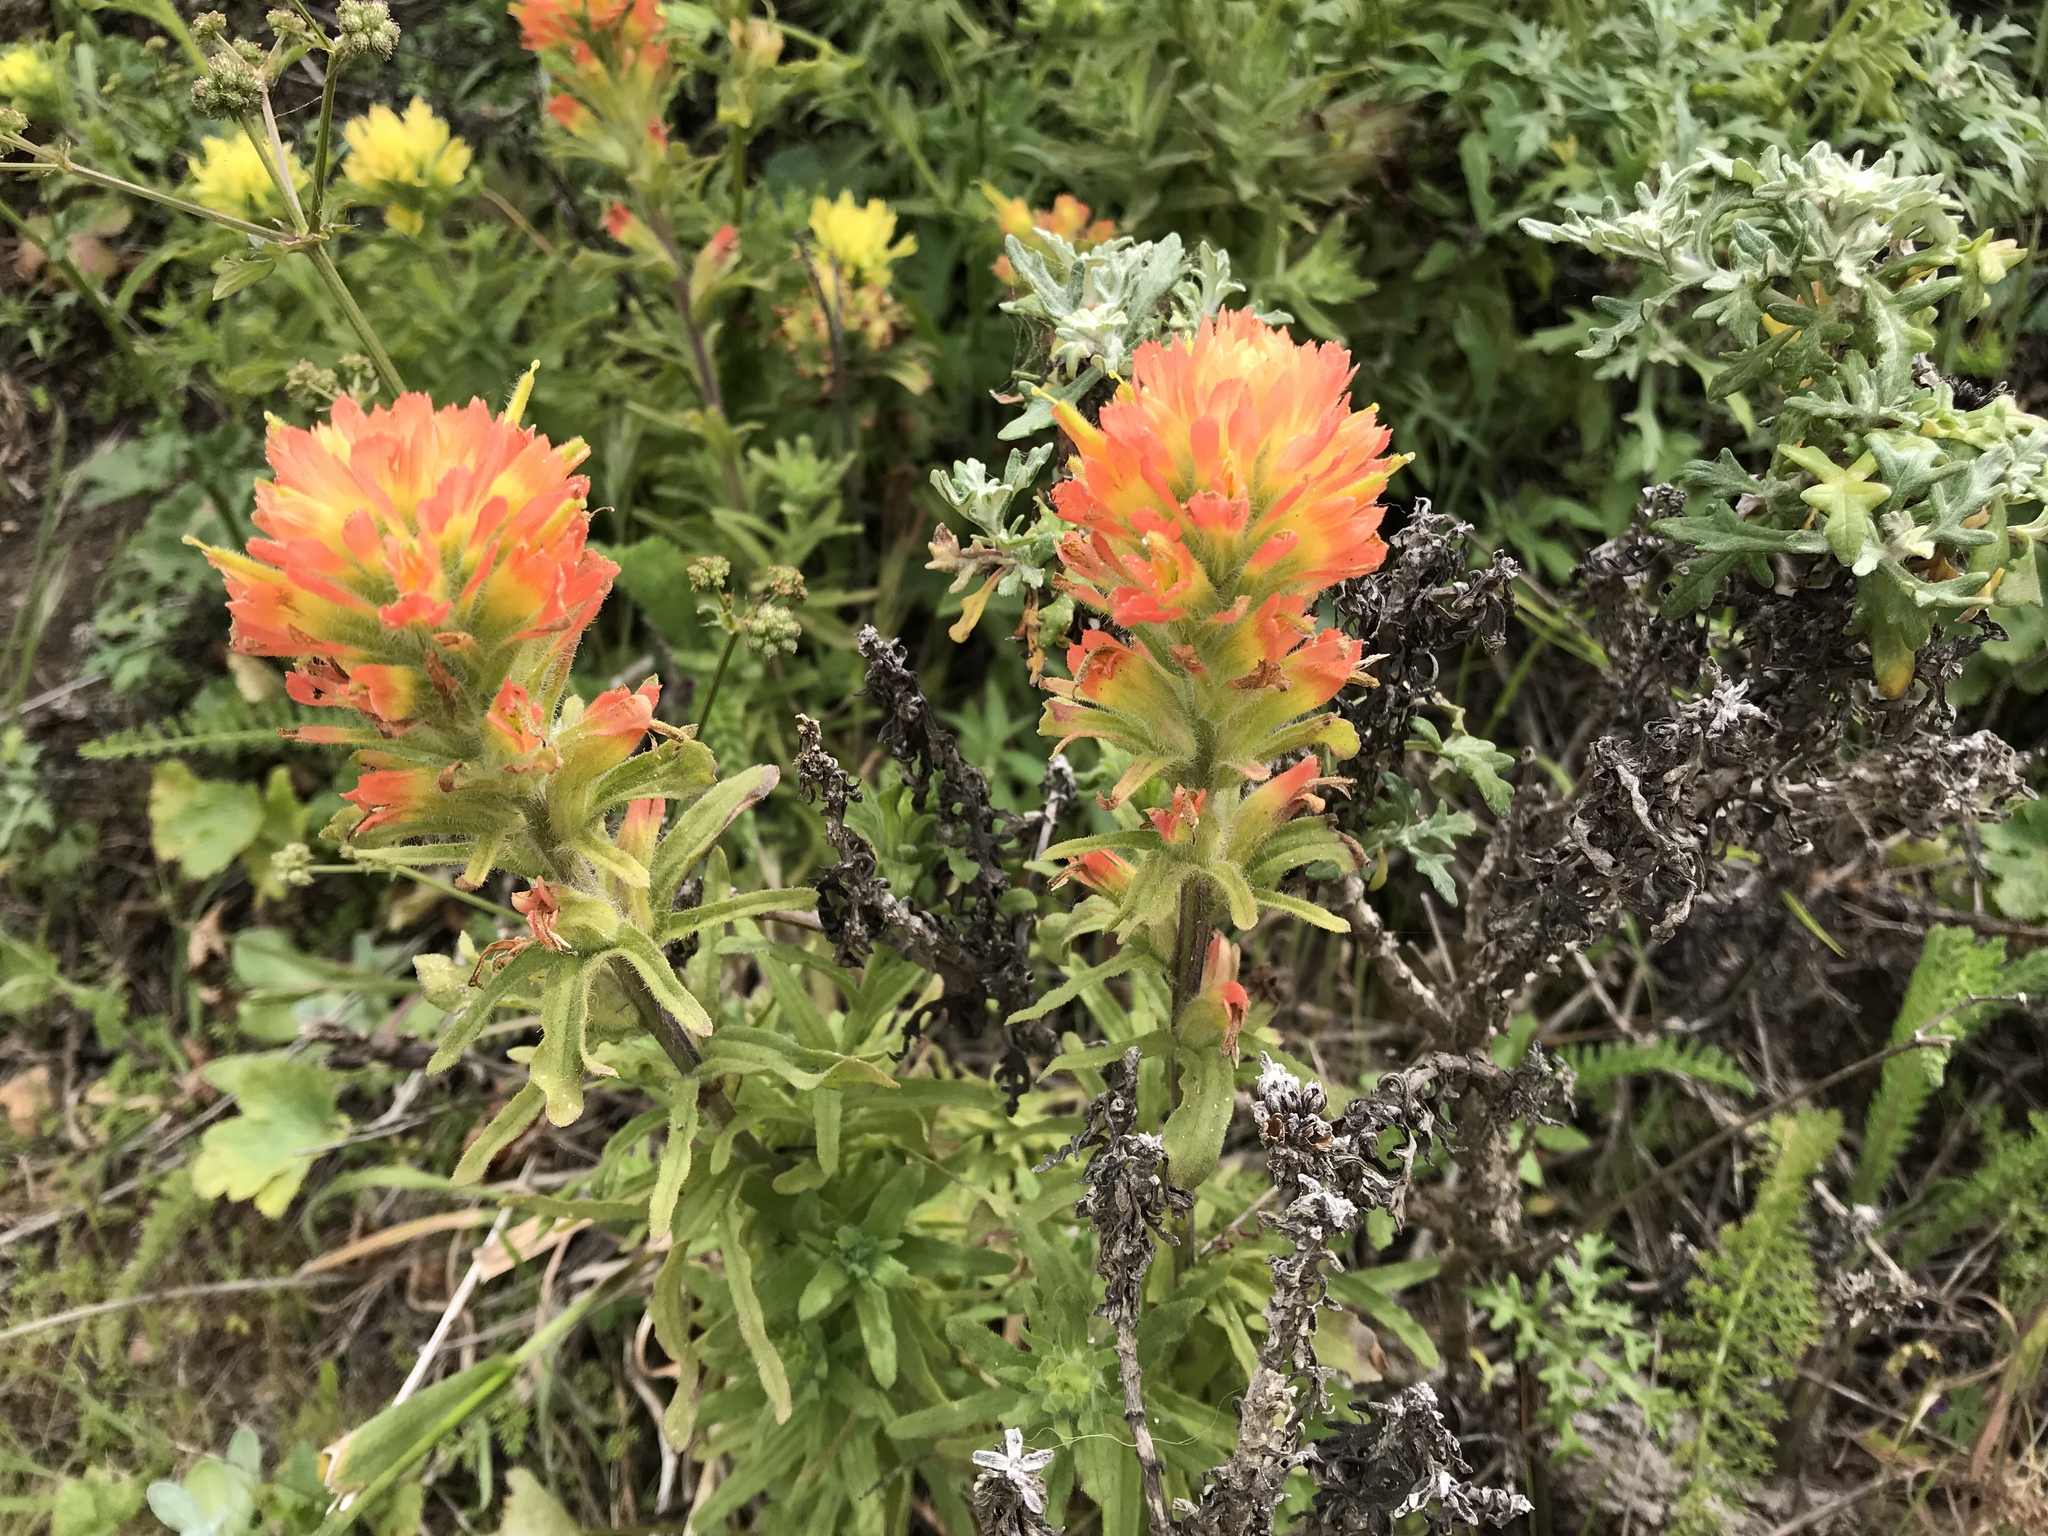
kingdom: Plantae
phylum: Tracheophyta
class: Magnoliopsida
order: Lamiales
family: Orobanchaceae
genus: Castilleja
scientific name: Castilleja affinis
